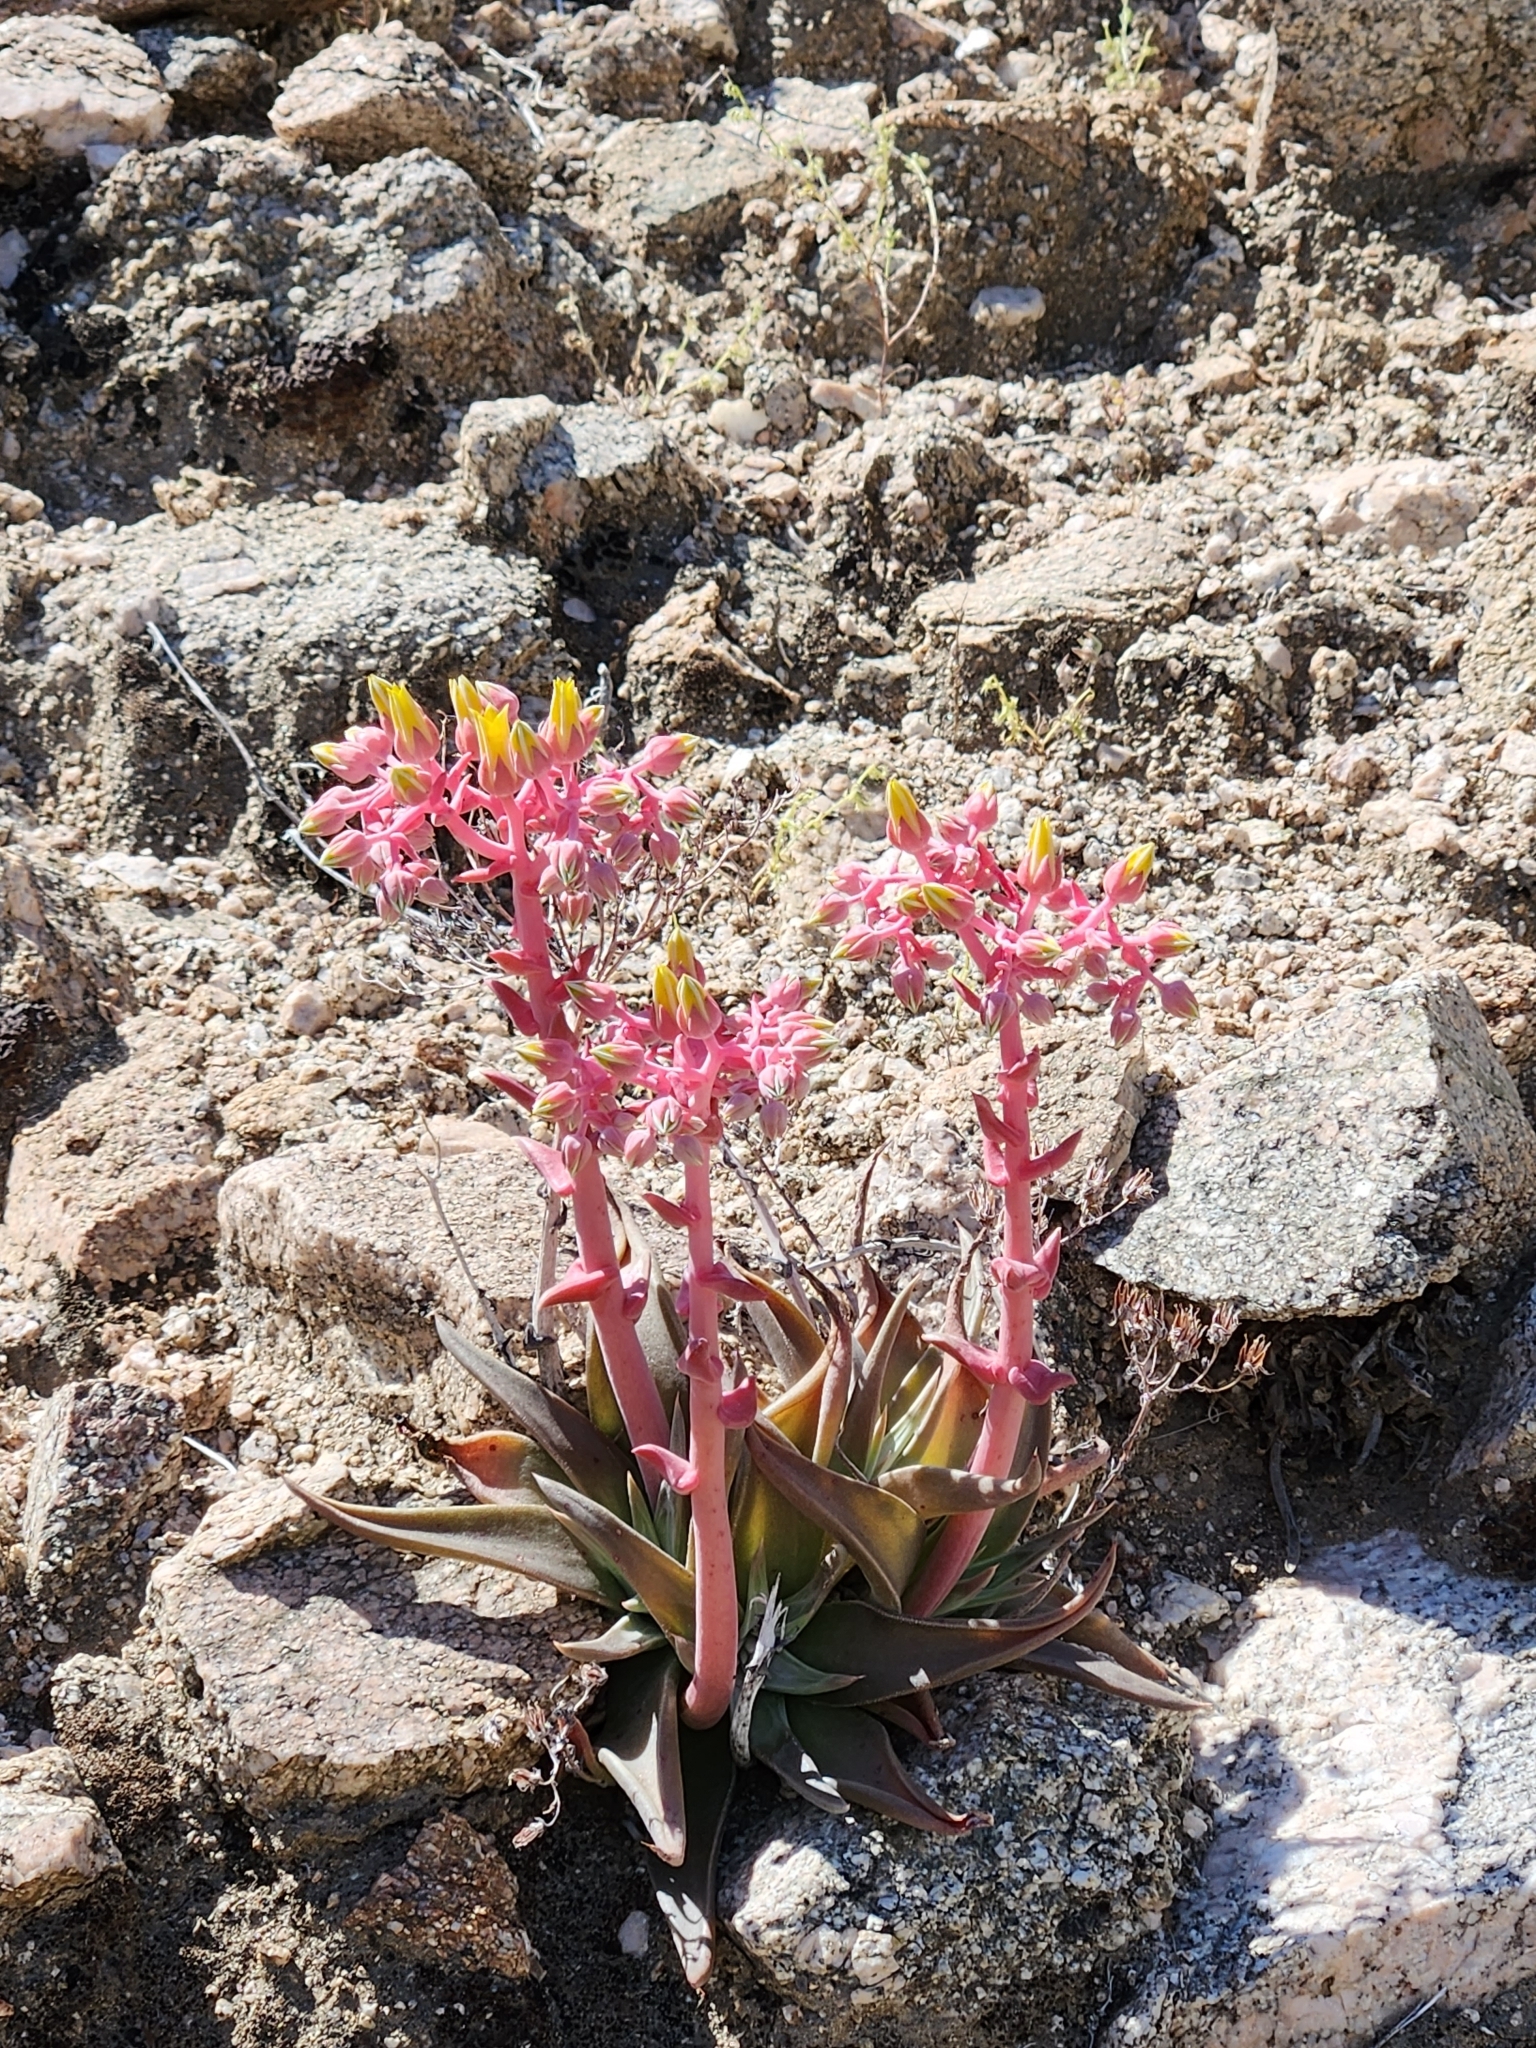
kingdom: Plantae
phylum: Tracheophyta
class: Magnoliopsida
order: Saxifragales
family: Crassulaceae
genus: Dudleya
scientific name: Dudleya saxosa
